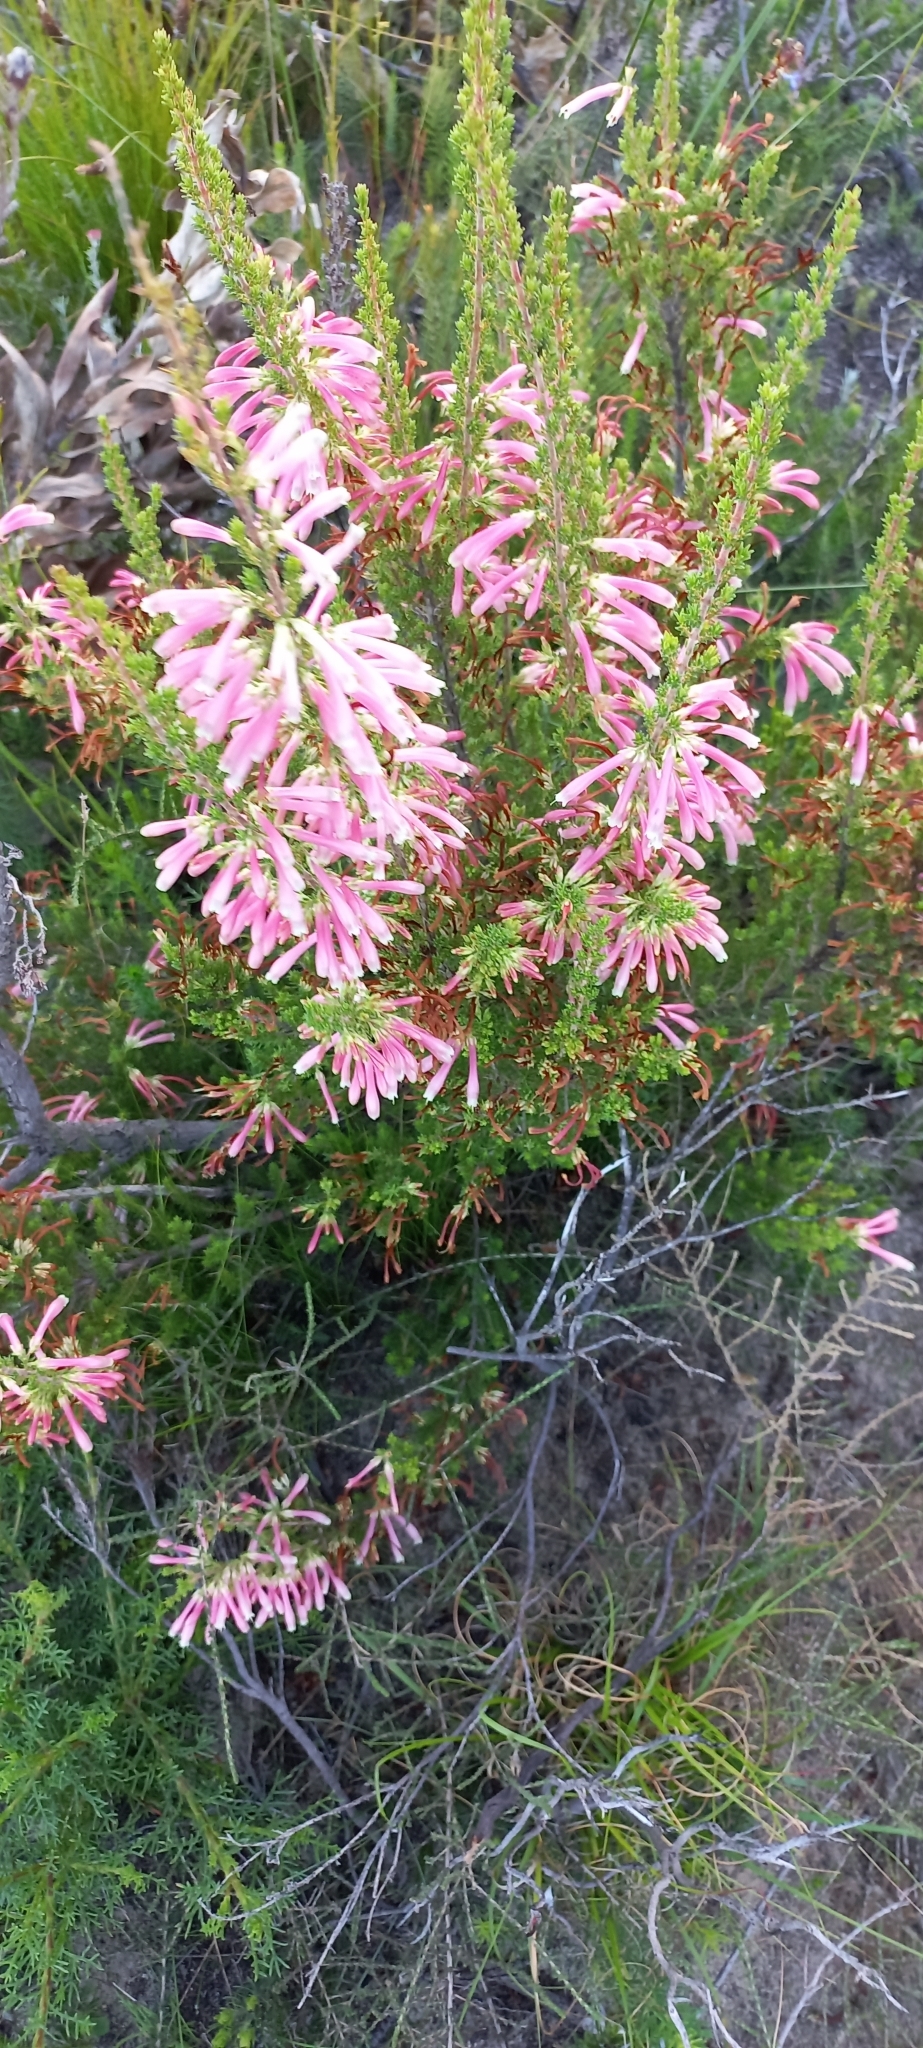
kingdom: Plantae
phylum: Tracheophyta
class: Magnoliopsida
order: Ericales
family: Ericaceae
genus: Erica
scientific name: Erica discolor
